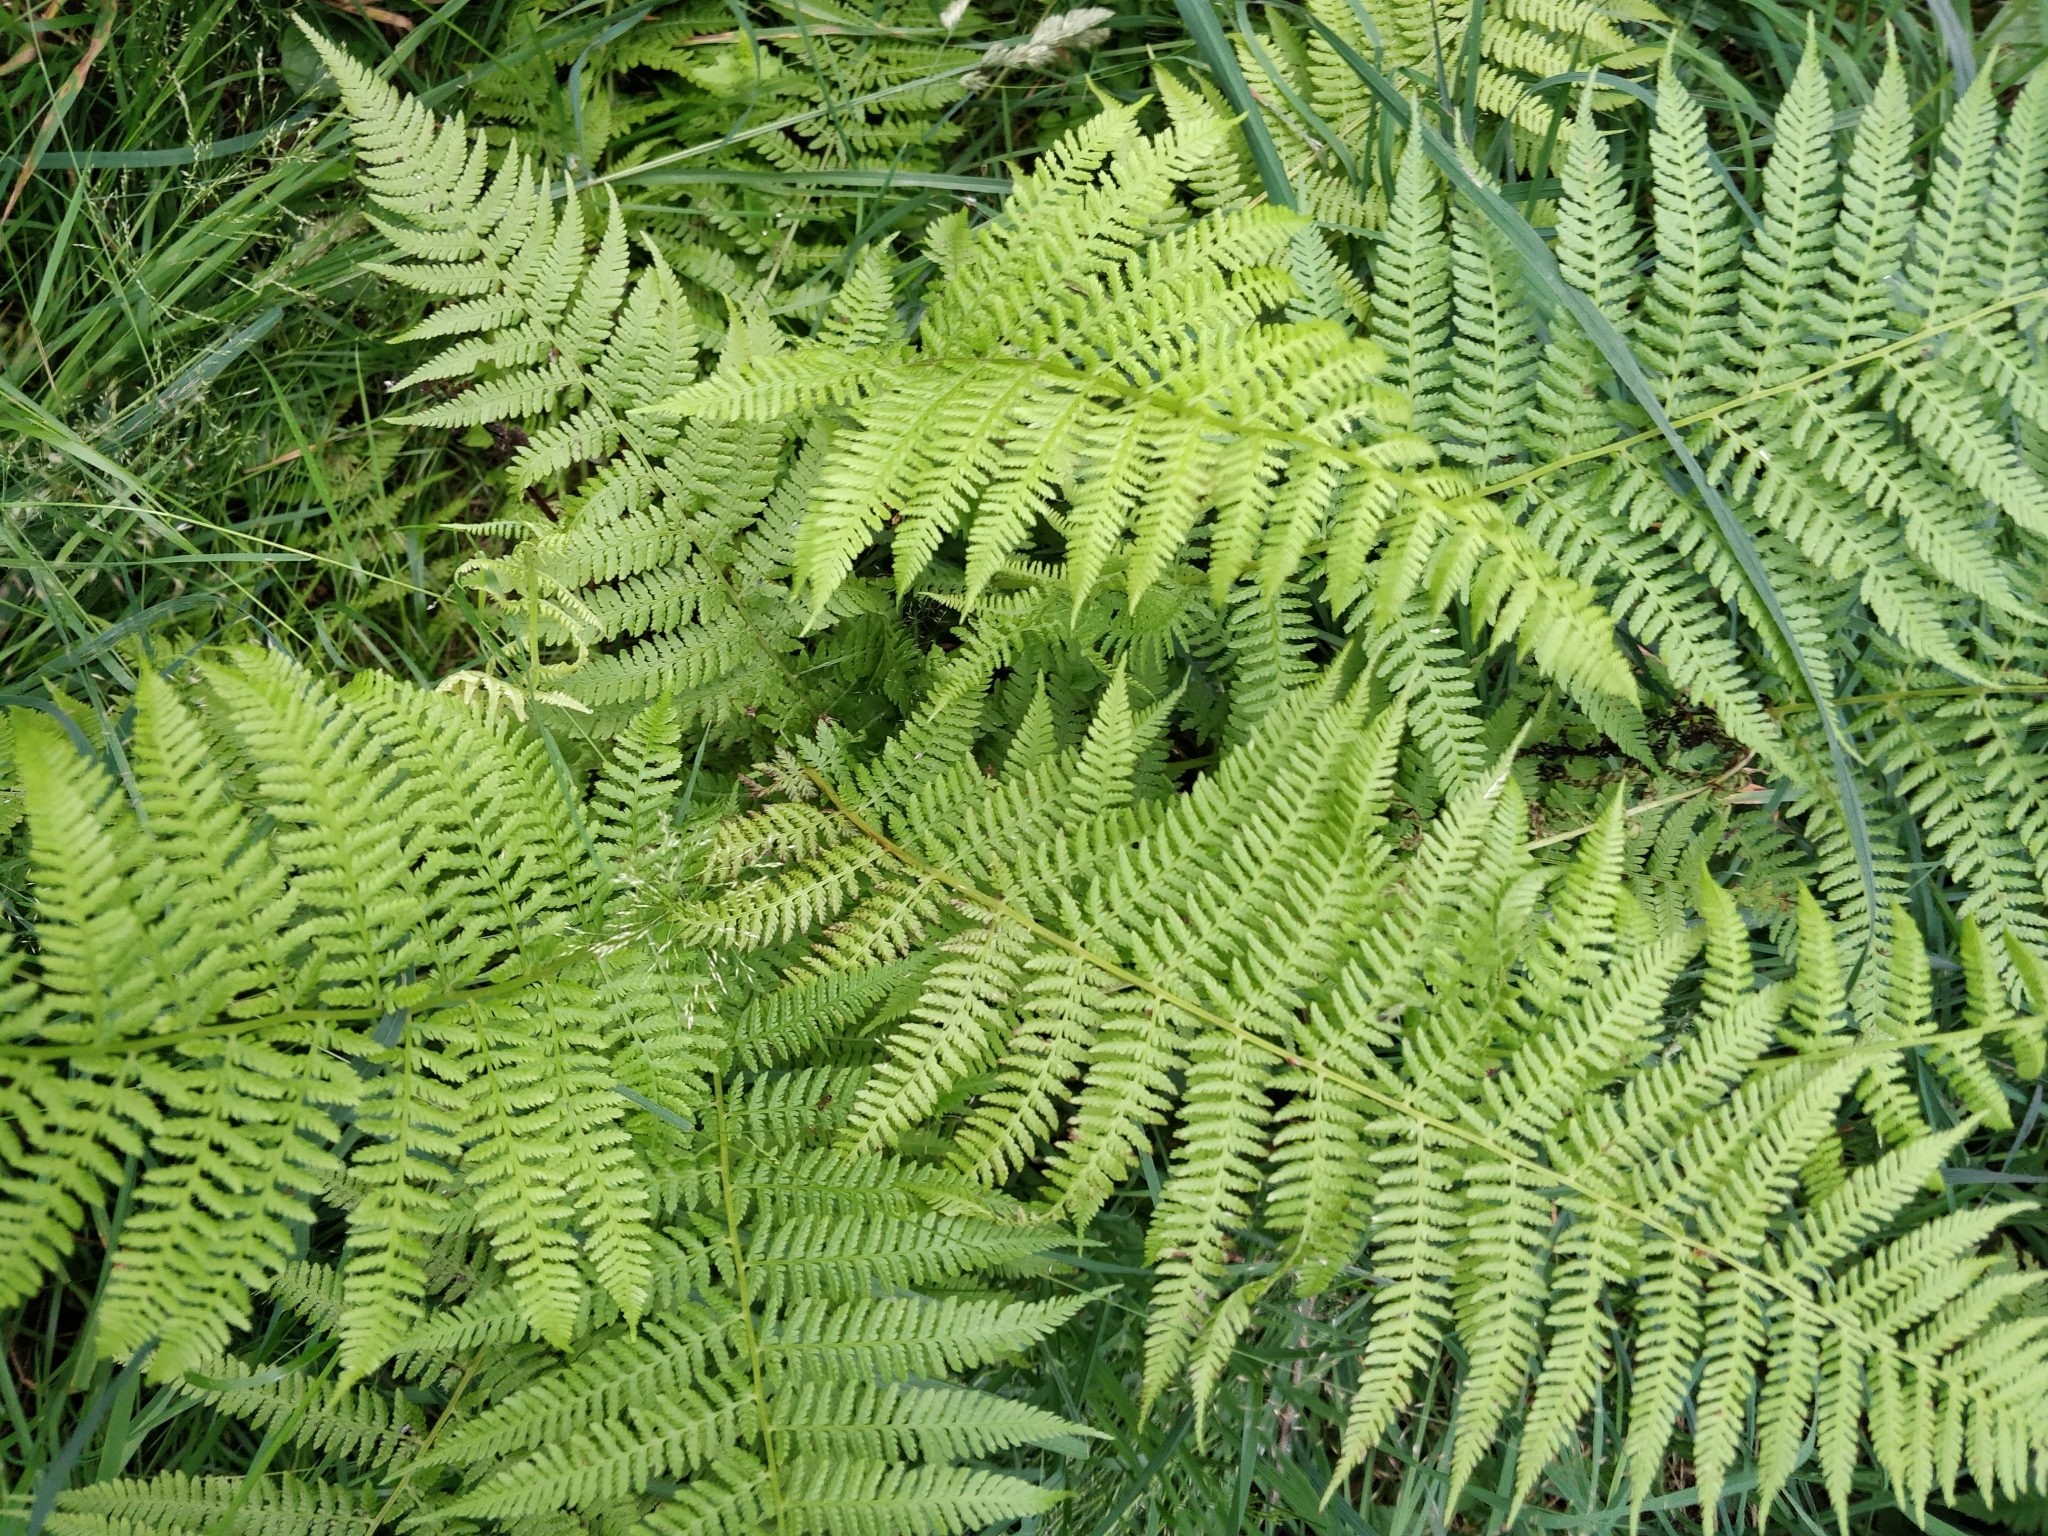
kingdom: Plantae
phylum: Tracheophyta
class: Polypodiopsida
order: Polypodiales
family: Athyriaceae
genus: Athyrium
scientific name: Athyrium filix-femina
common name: Lady fern
